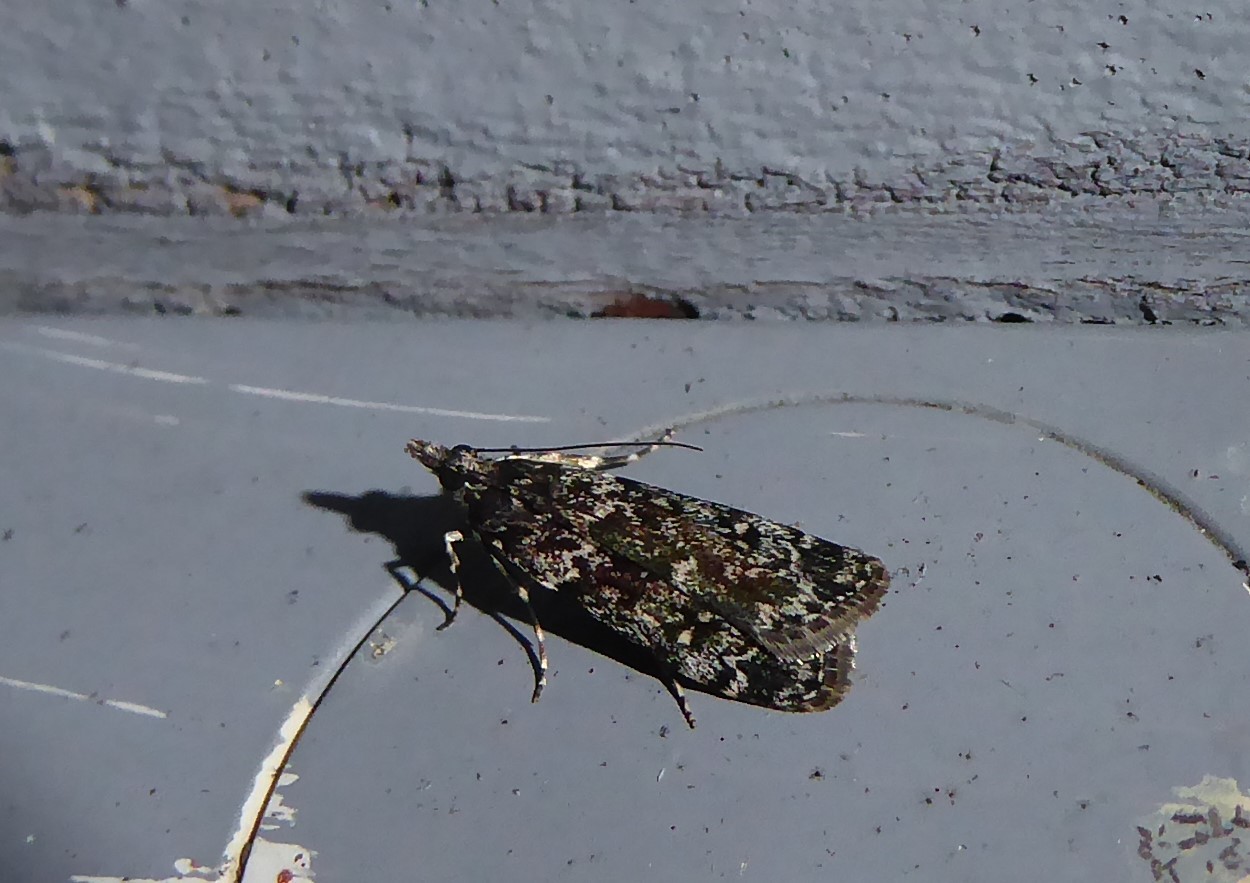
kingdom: Animalia
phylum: Arthropoda
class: Insecta
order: Lepidoptera
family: Crambidae
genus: Eudonia
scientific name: Eudonia philerga
